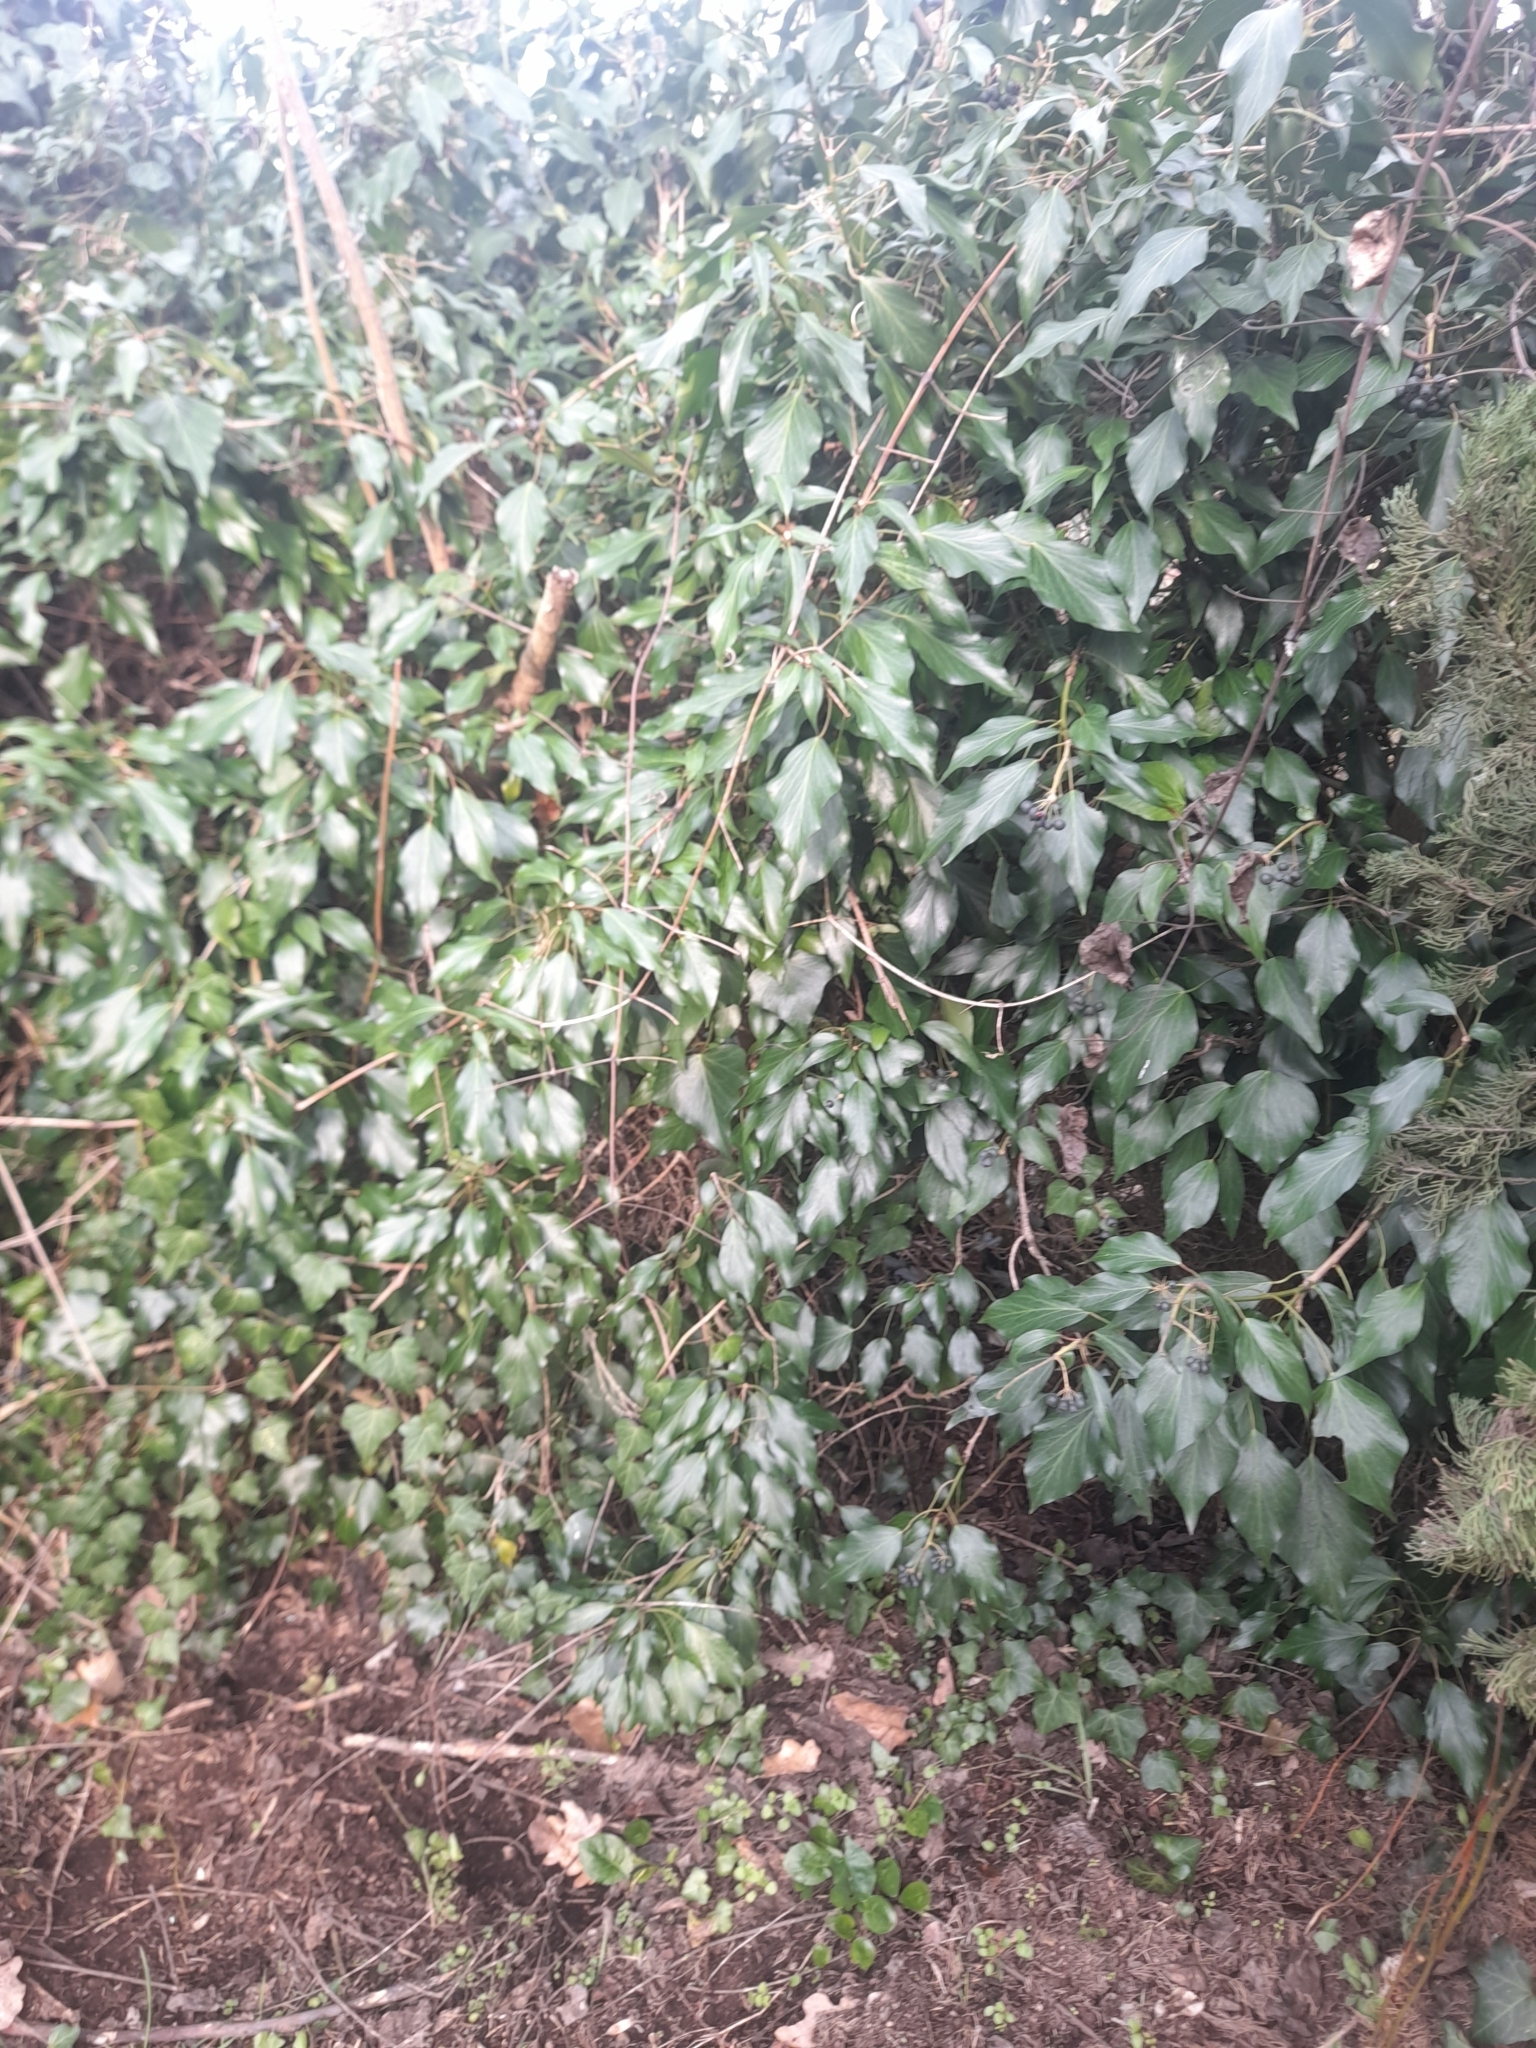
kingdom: Plantae
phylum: Tracheophyta
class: Magnoliopsida
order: Apiales
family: Araliaceae
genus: Hedera
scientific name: Hedera helix
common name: Ivy
